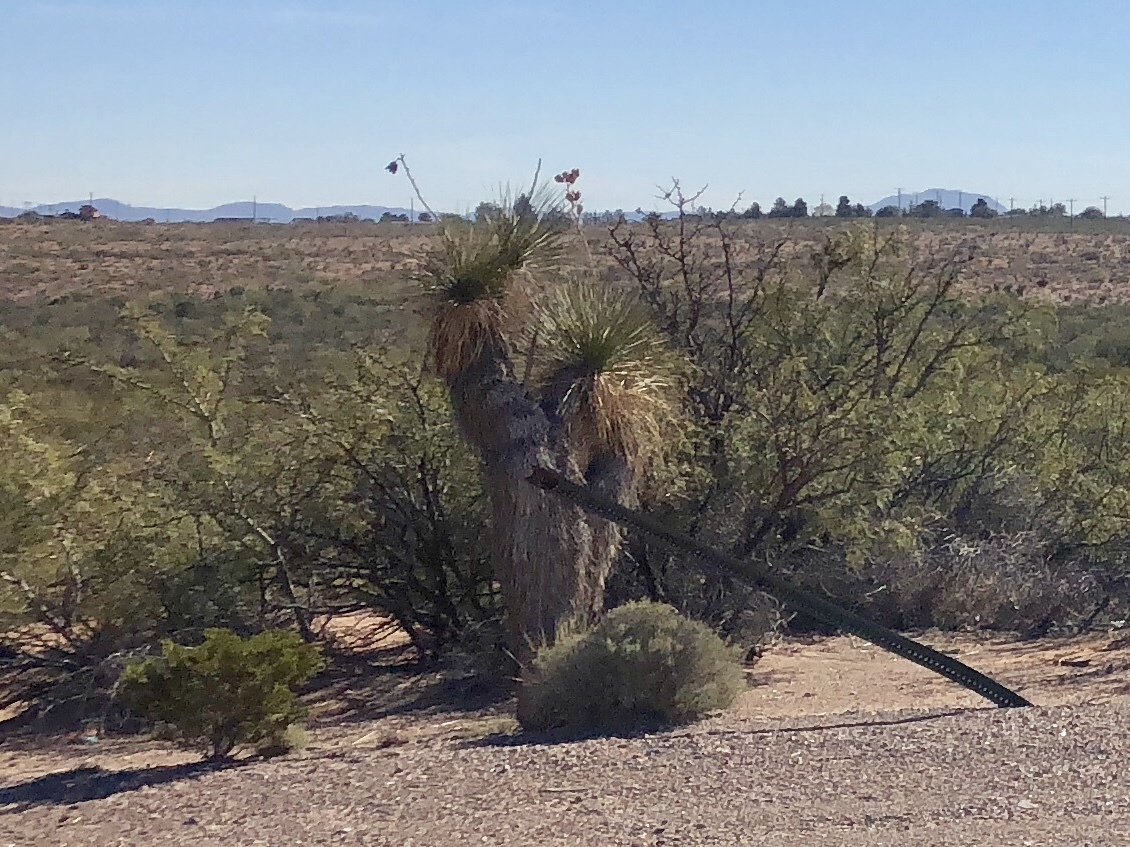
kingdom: Plantae
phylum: Tracheophyta
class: Liliopsida
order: Asparagales
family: Asparagaceae
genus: Yucca
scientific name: Yucca elata
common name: Palmella
